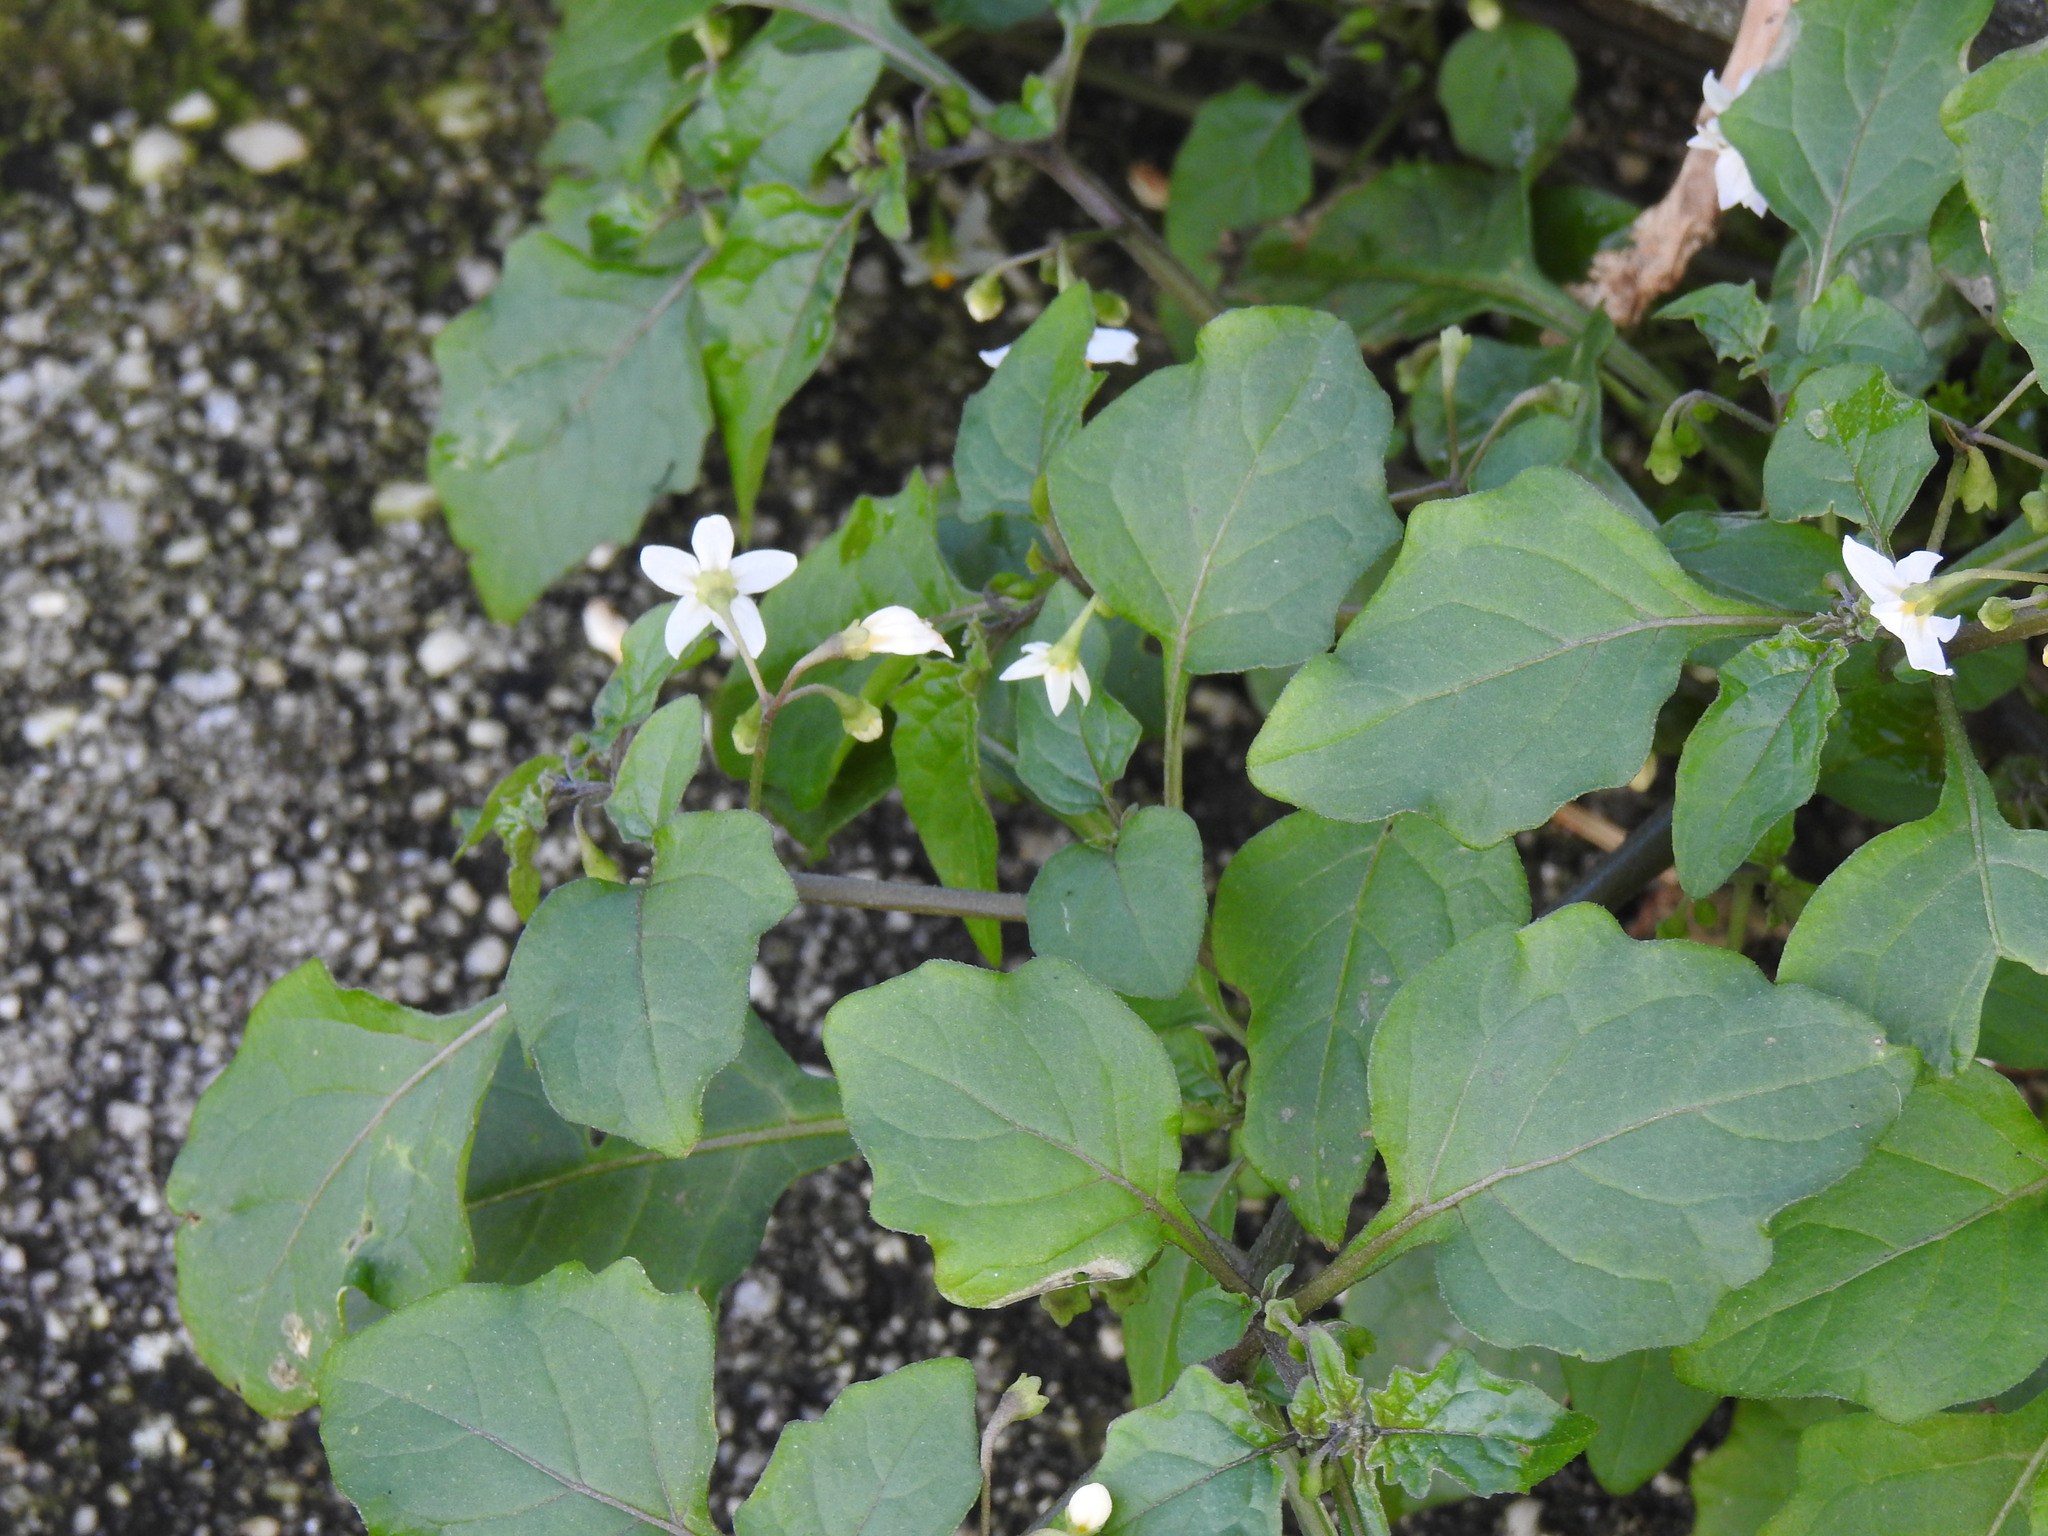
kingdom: Plantae
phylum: Tracheophyta
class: Magnoliopsida
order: Solanales
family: Solanaceae
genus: Solanum
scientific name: Solanum nigrum
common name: Black nightshade
